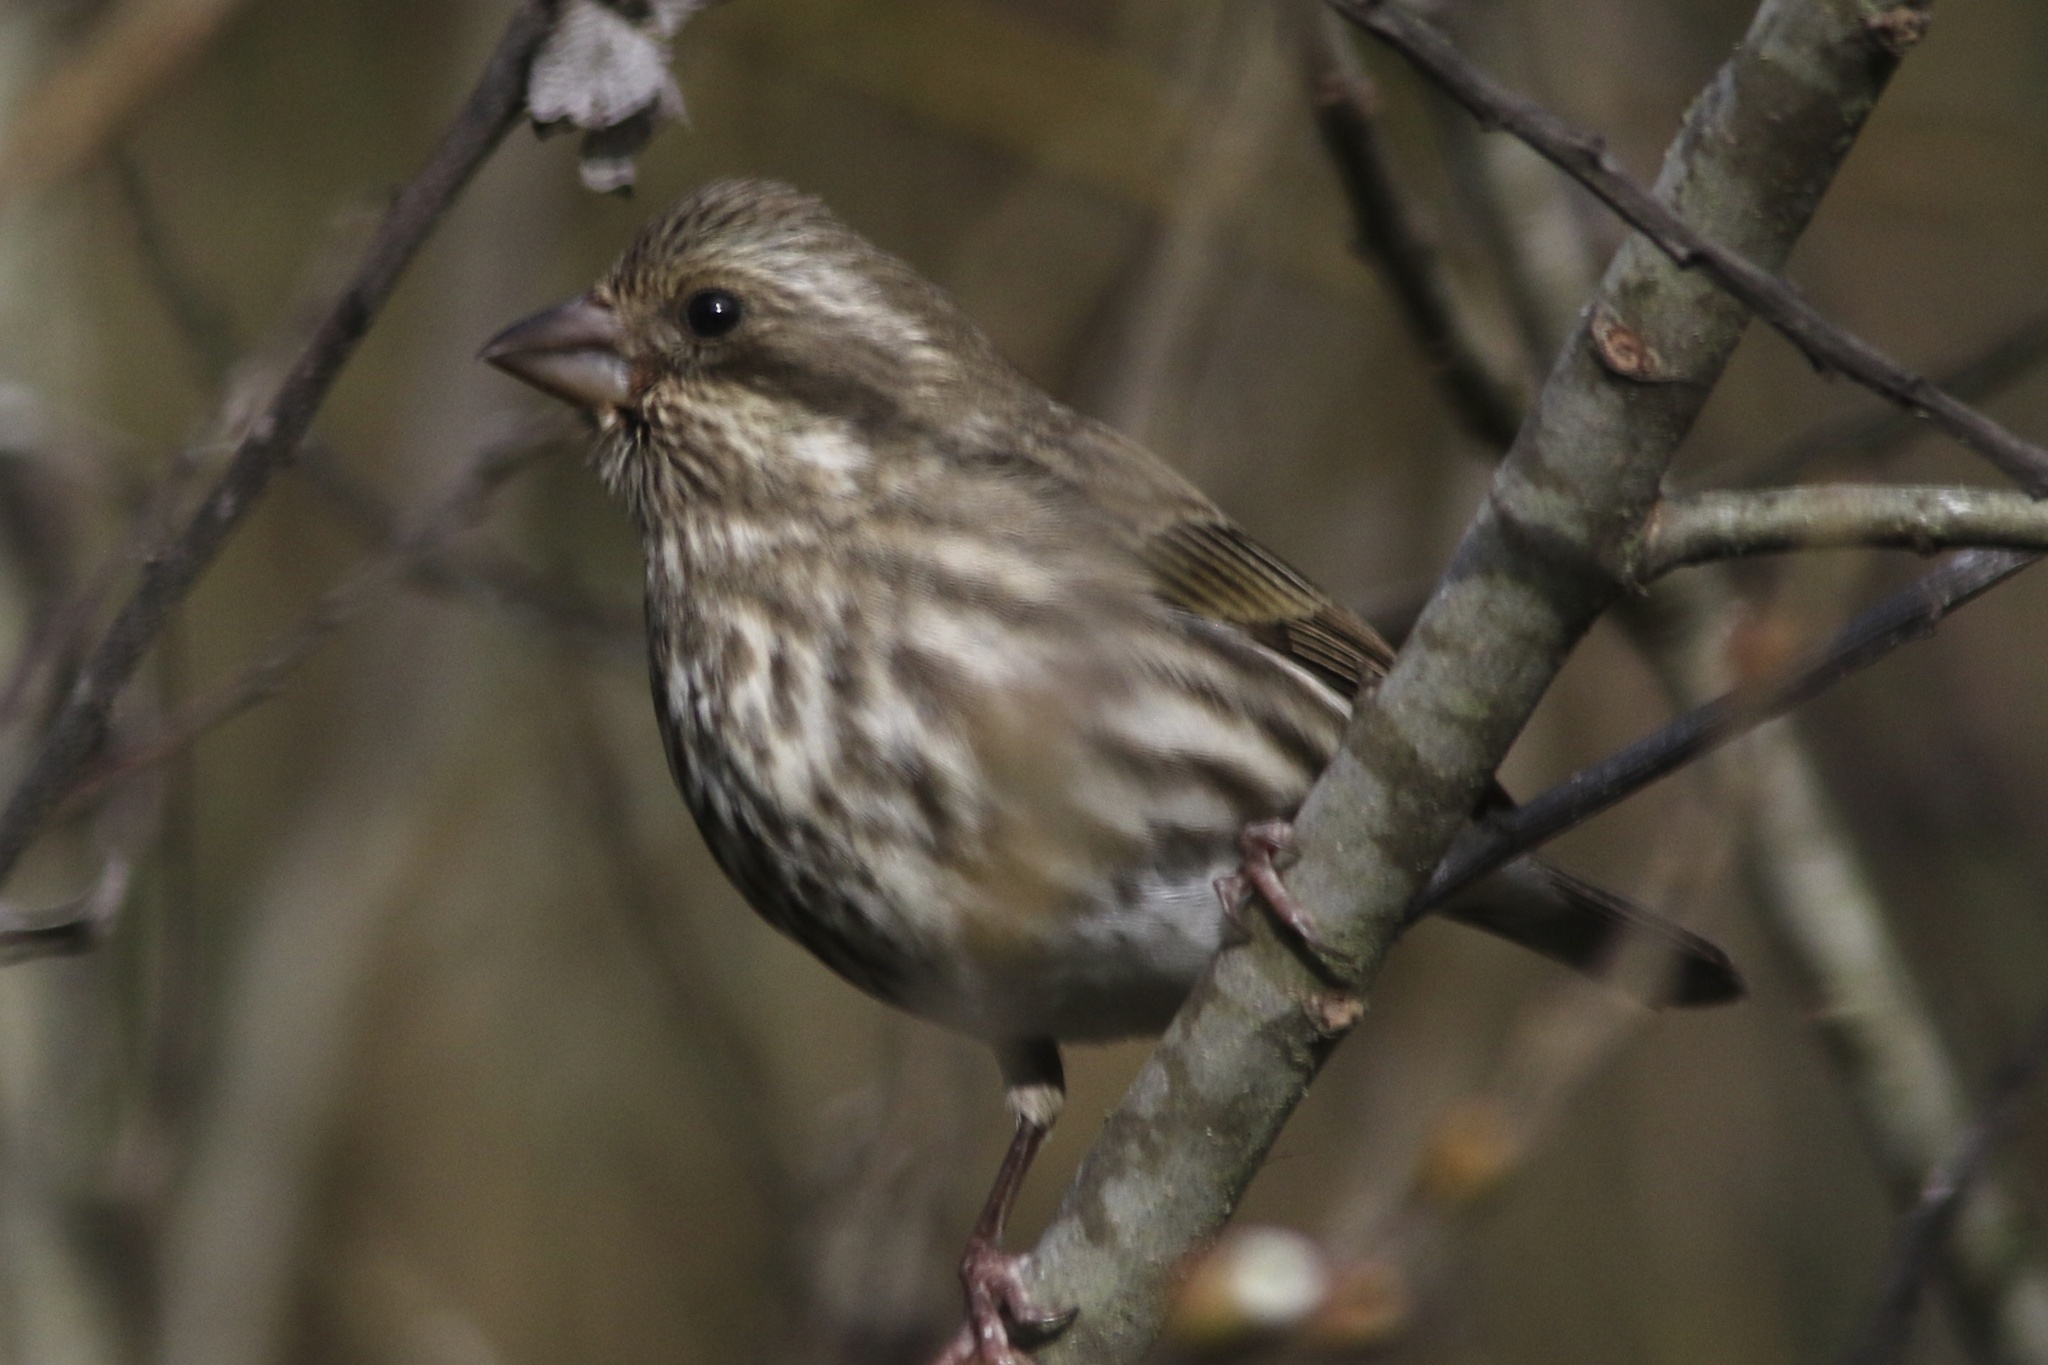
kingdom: Animalia
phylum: Chordata
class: Aves
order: Passeriformes
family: Fringillidae
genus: Haemorhous
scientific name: Haemorhous purpureus
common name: Purple finch
